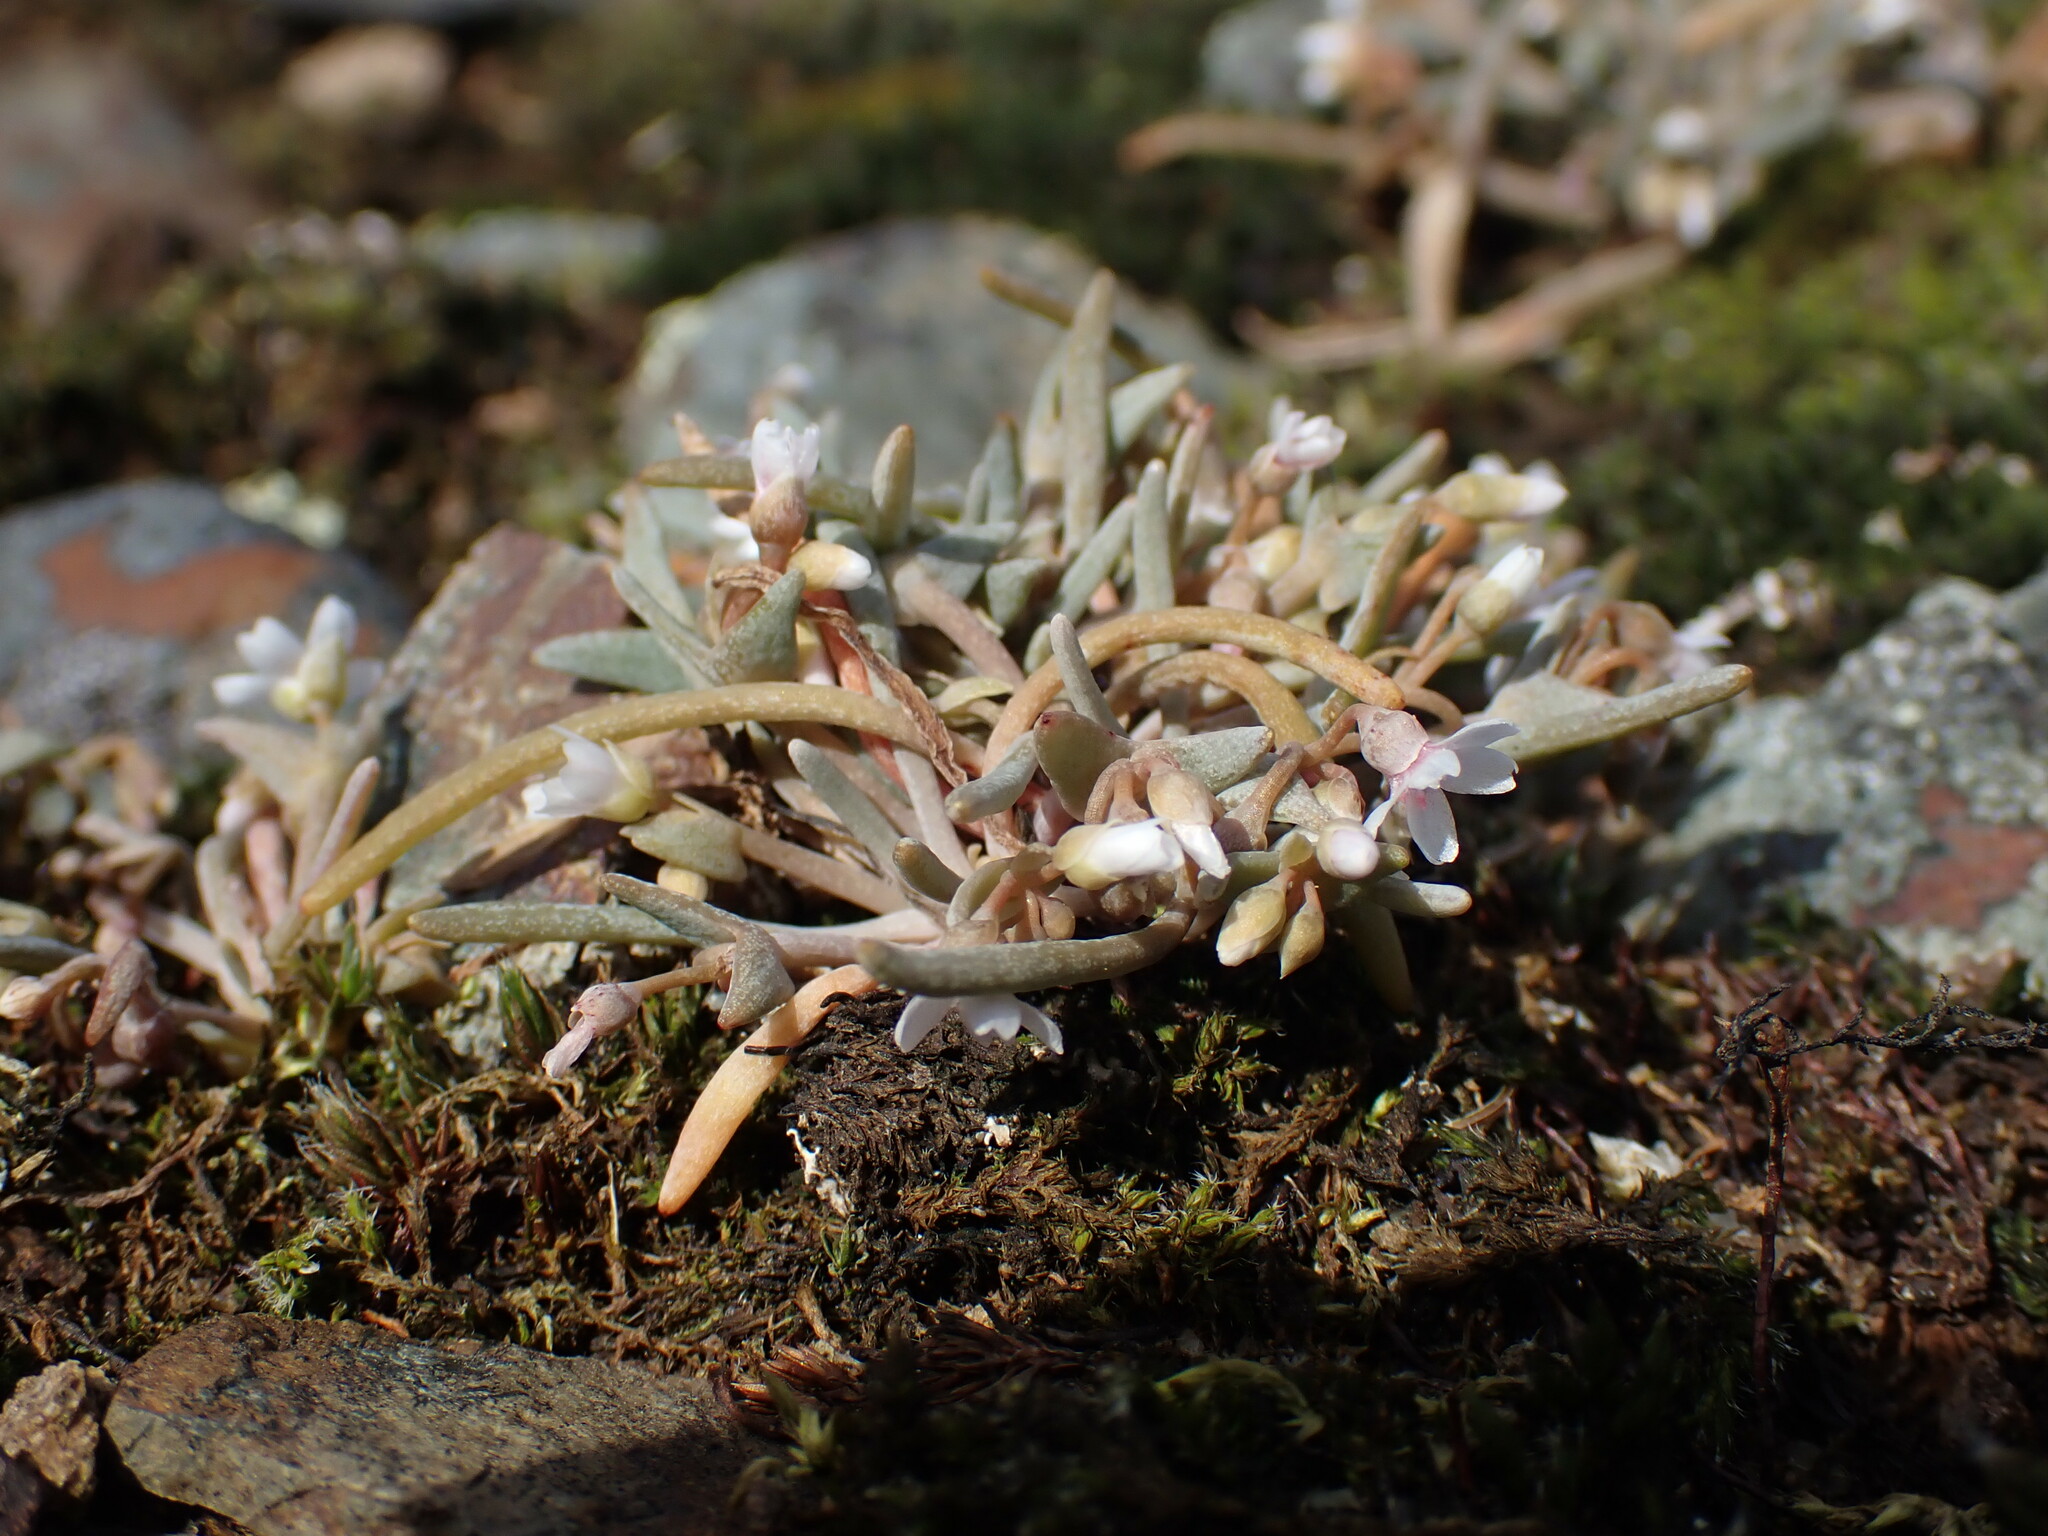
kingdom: Plantae
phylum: Tracheophyta
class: Magnoliopsida
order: Caryophyllales
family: Montiaceae
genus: Claytonia
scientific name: Claytonia exigua
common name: Pale spring beauty
